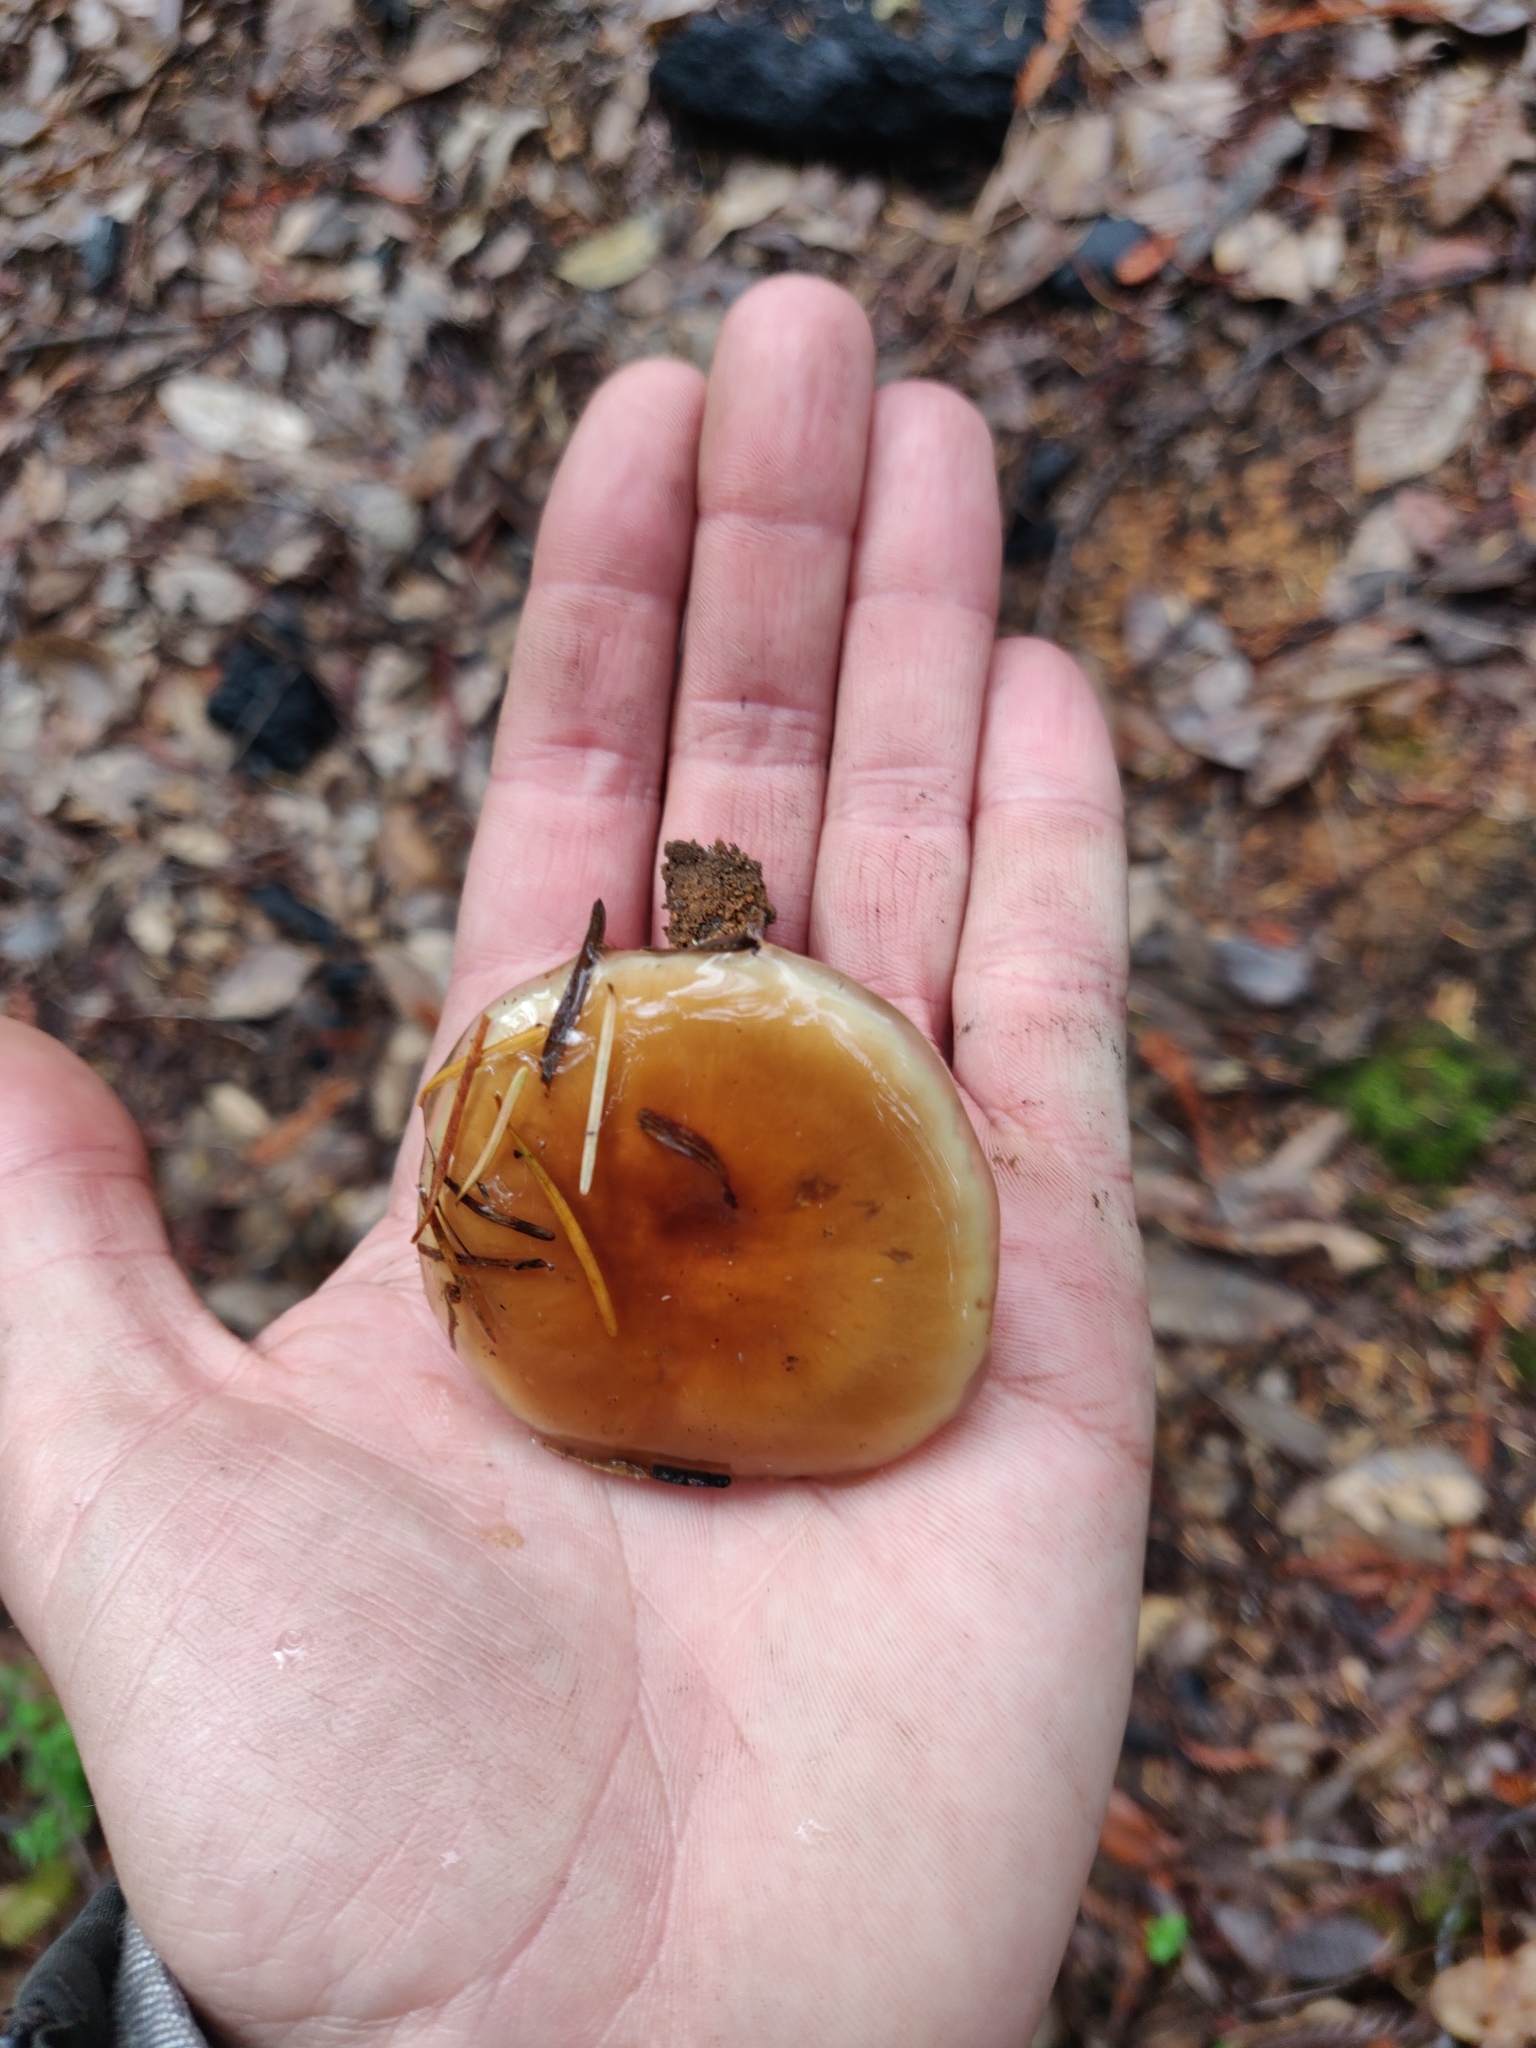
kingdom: Fungi
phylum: Basidiomycota
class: Agaricomycetes
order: Agaricales
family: Strophariaceae
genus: Pholiota
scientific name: Pholiota velaglutinosa
